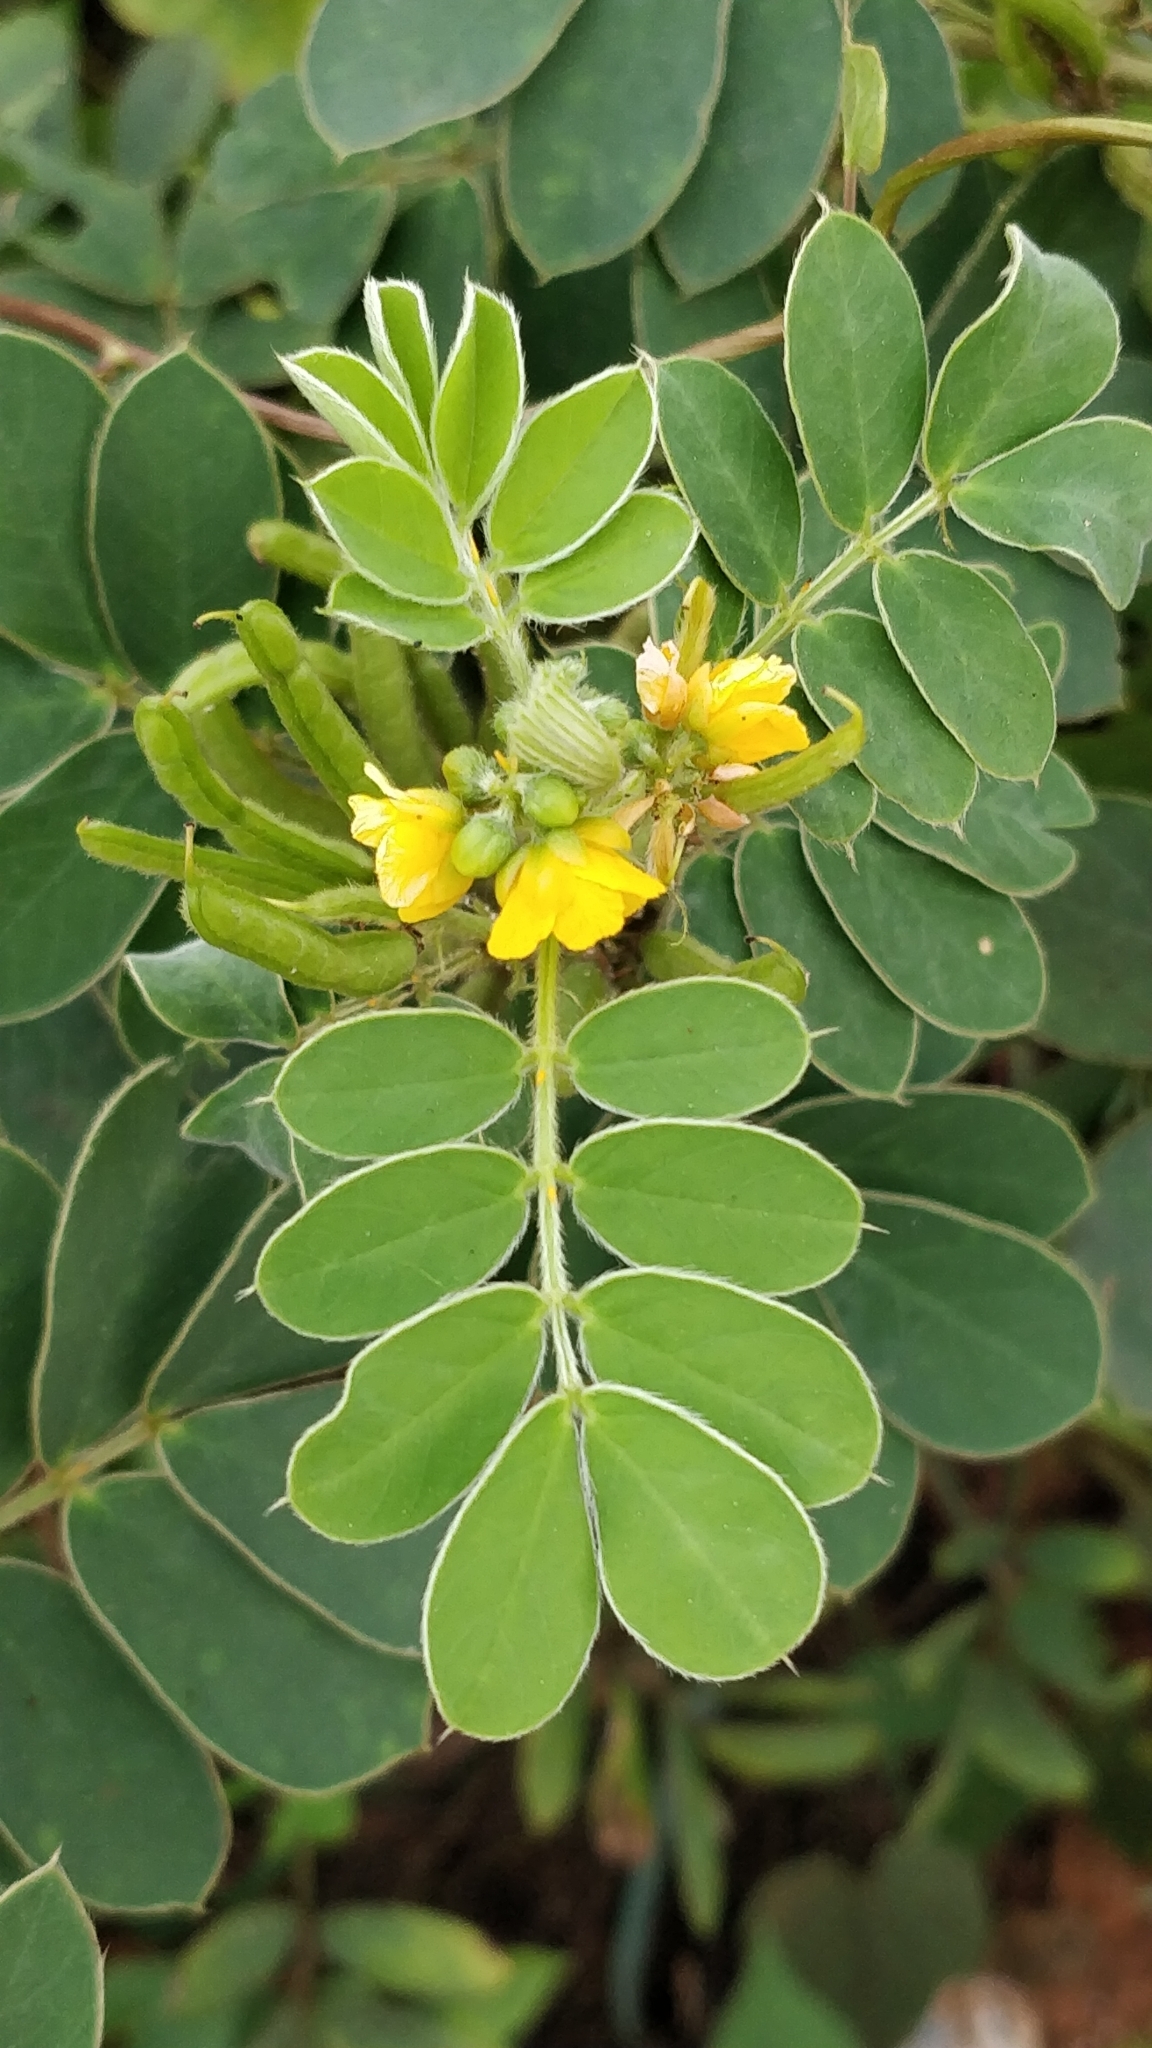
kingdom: Plantae
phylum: Tracheophyta
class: Magnoliopsida
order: Fabales
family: Fabaceae
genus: Senna
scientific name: Senna uniflora
